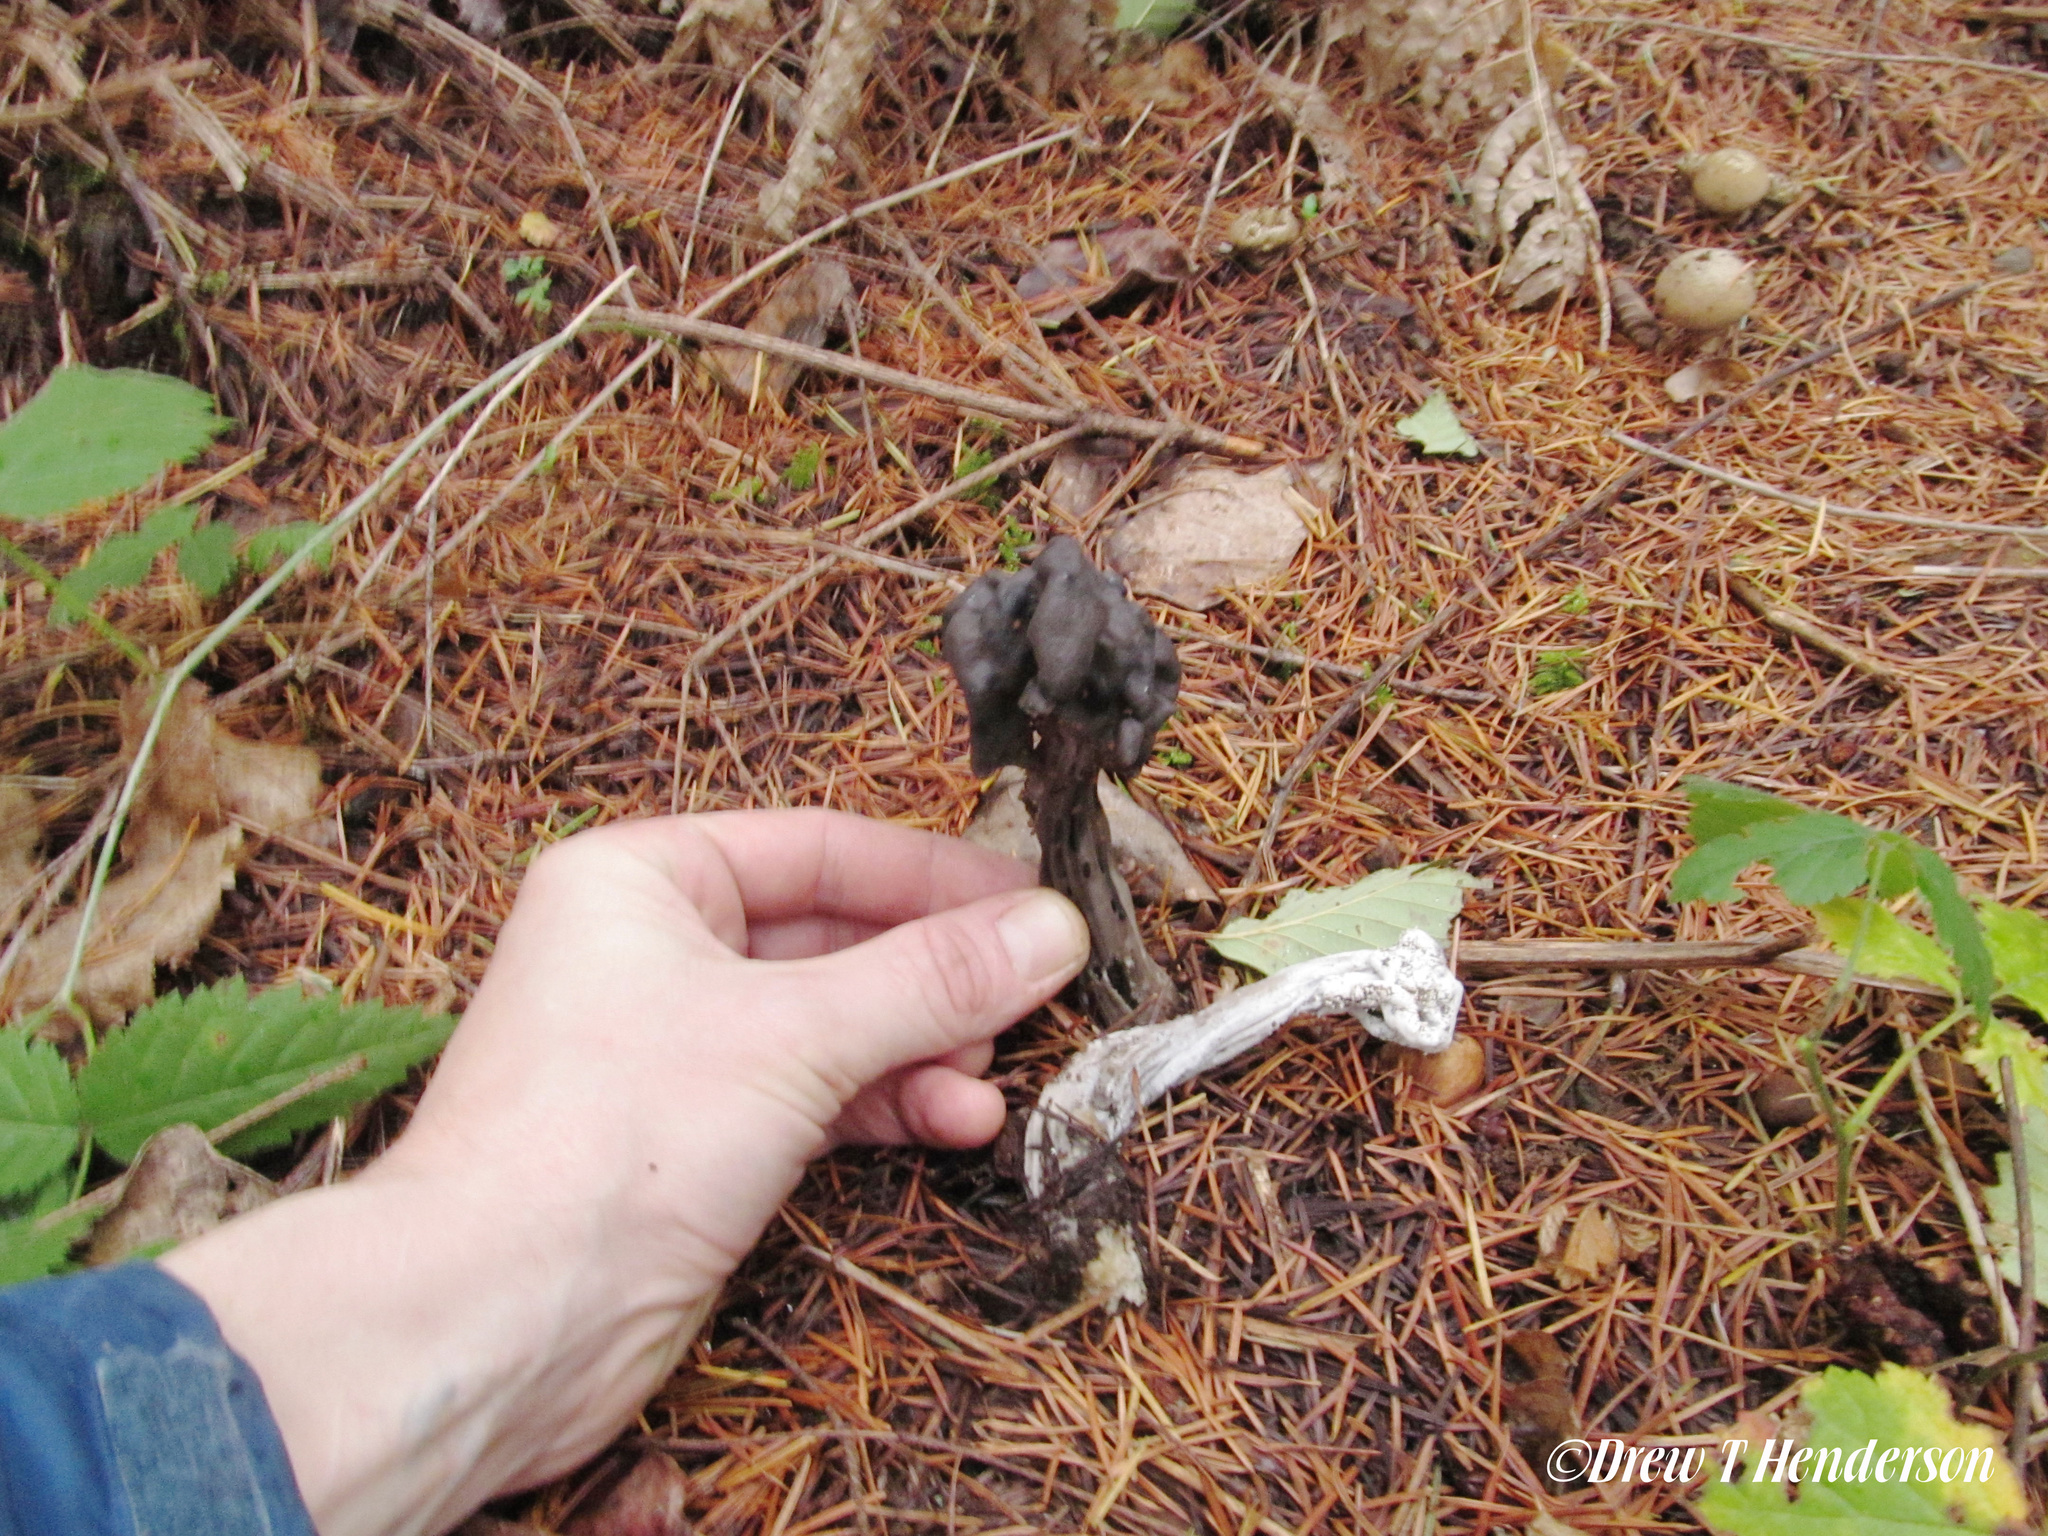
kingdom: Fungi
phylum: Ascomycota
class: Pezizomycetes
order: Pezizales
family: Helvellaceae
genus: Helvella
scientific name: Helvella vespertina
